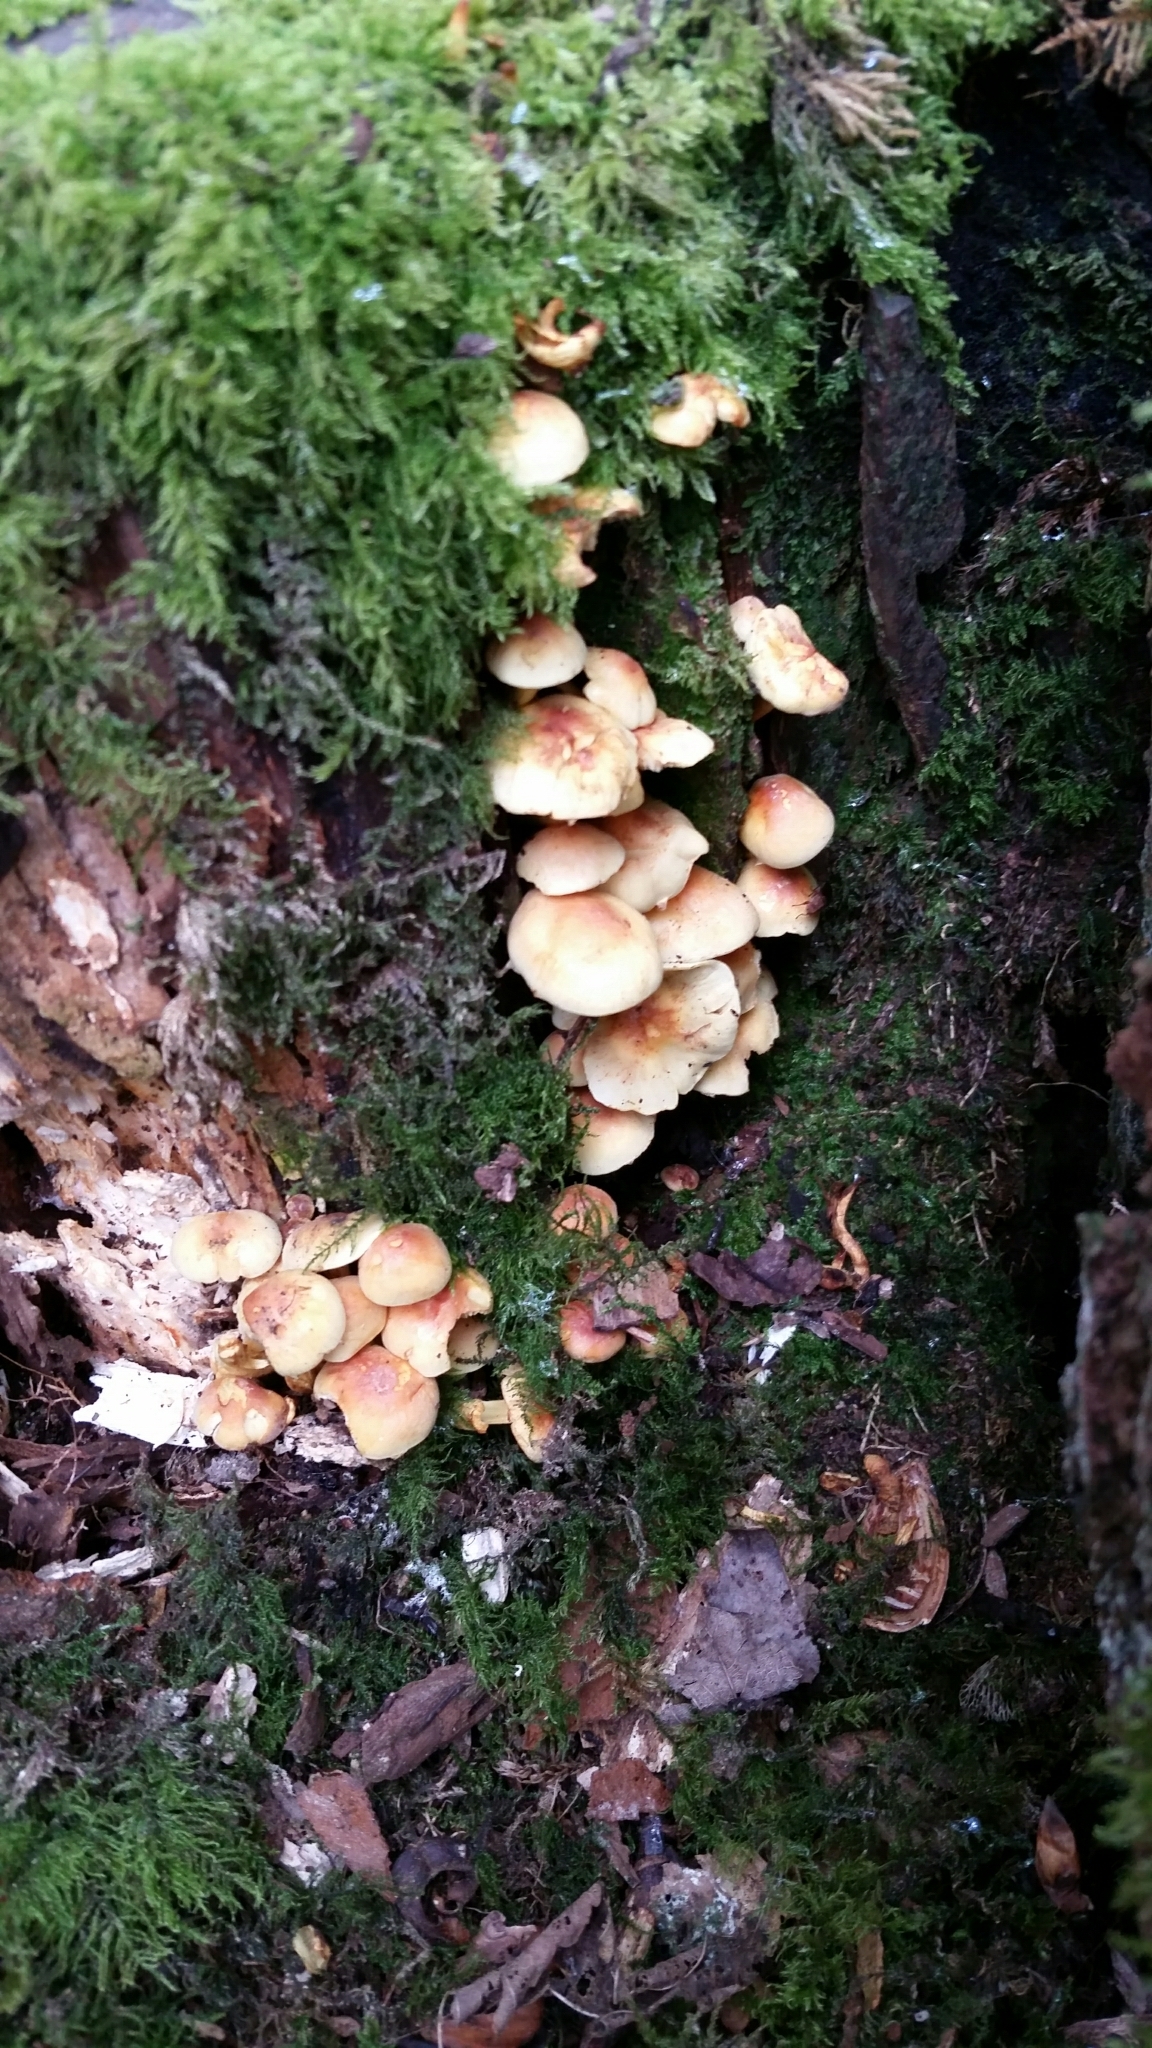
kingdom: Fungi
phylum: Basidiomycota
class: Agaricomycetes
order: Agaricales
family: Strophariaceae
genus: Hypholoma
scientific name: Hypholoma fasciculare
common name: Sulphur tuft
